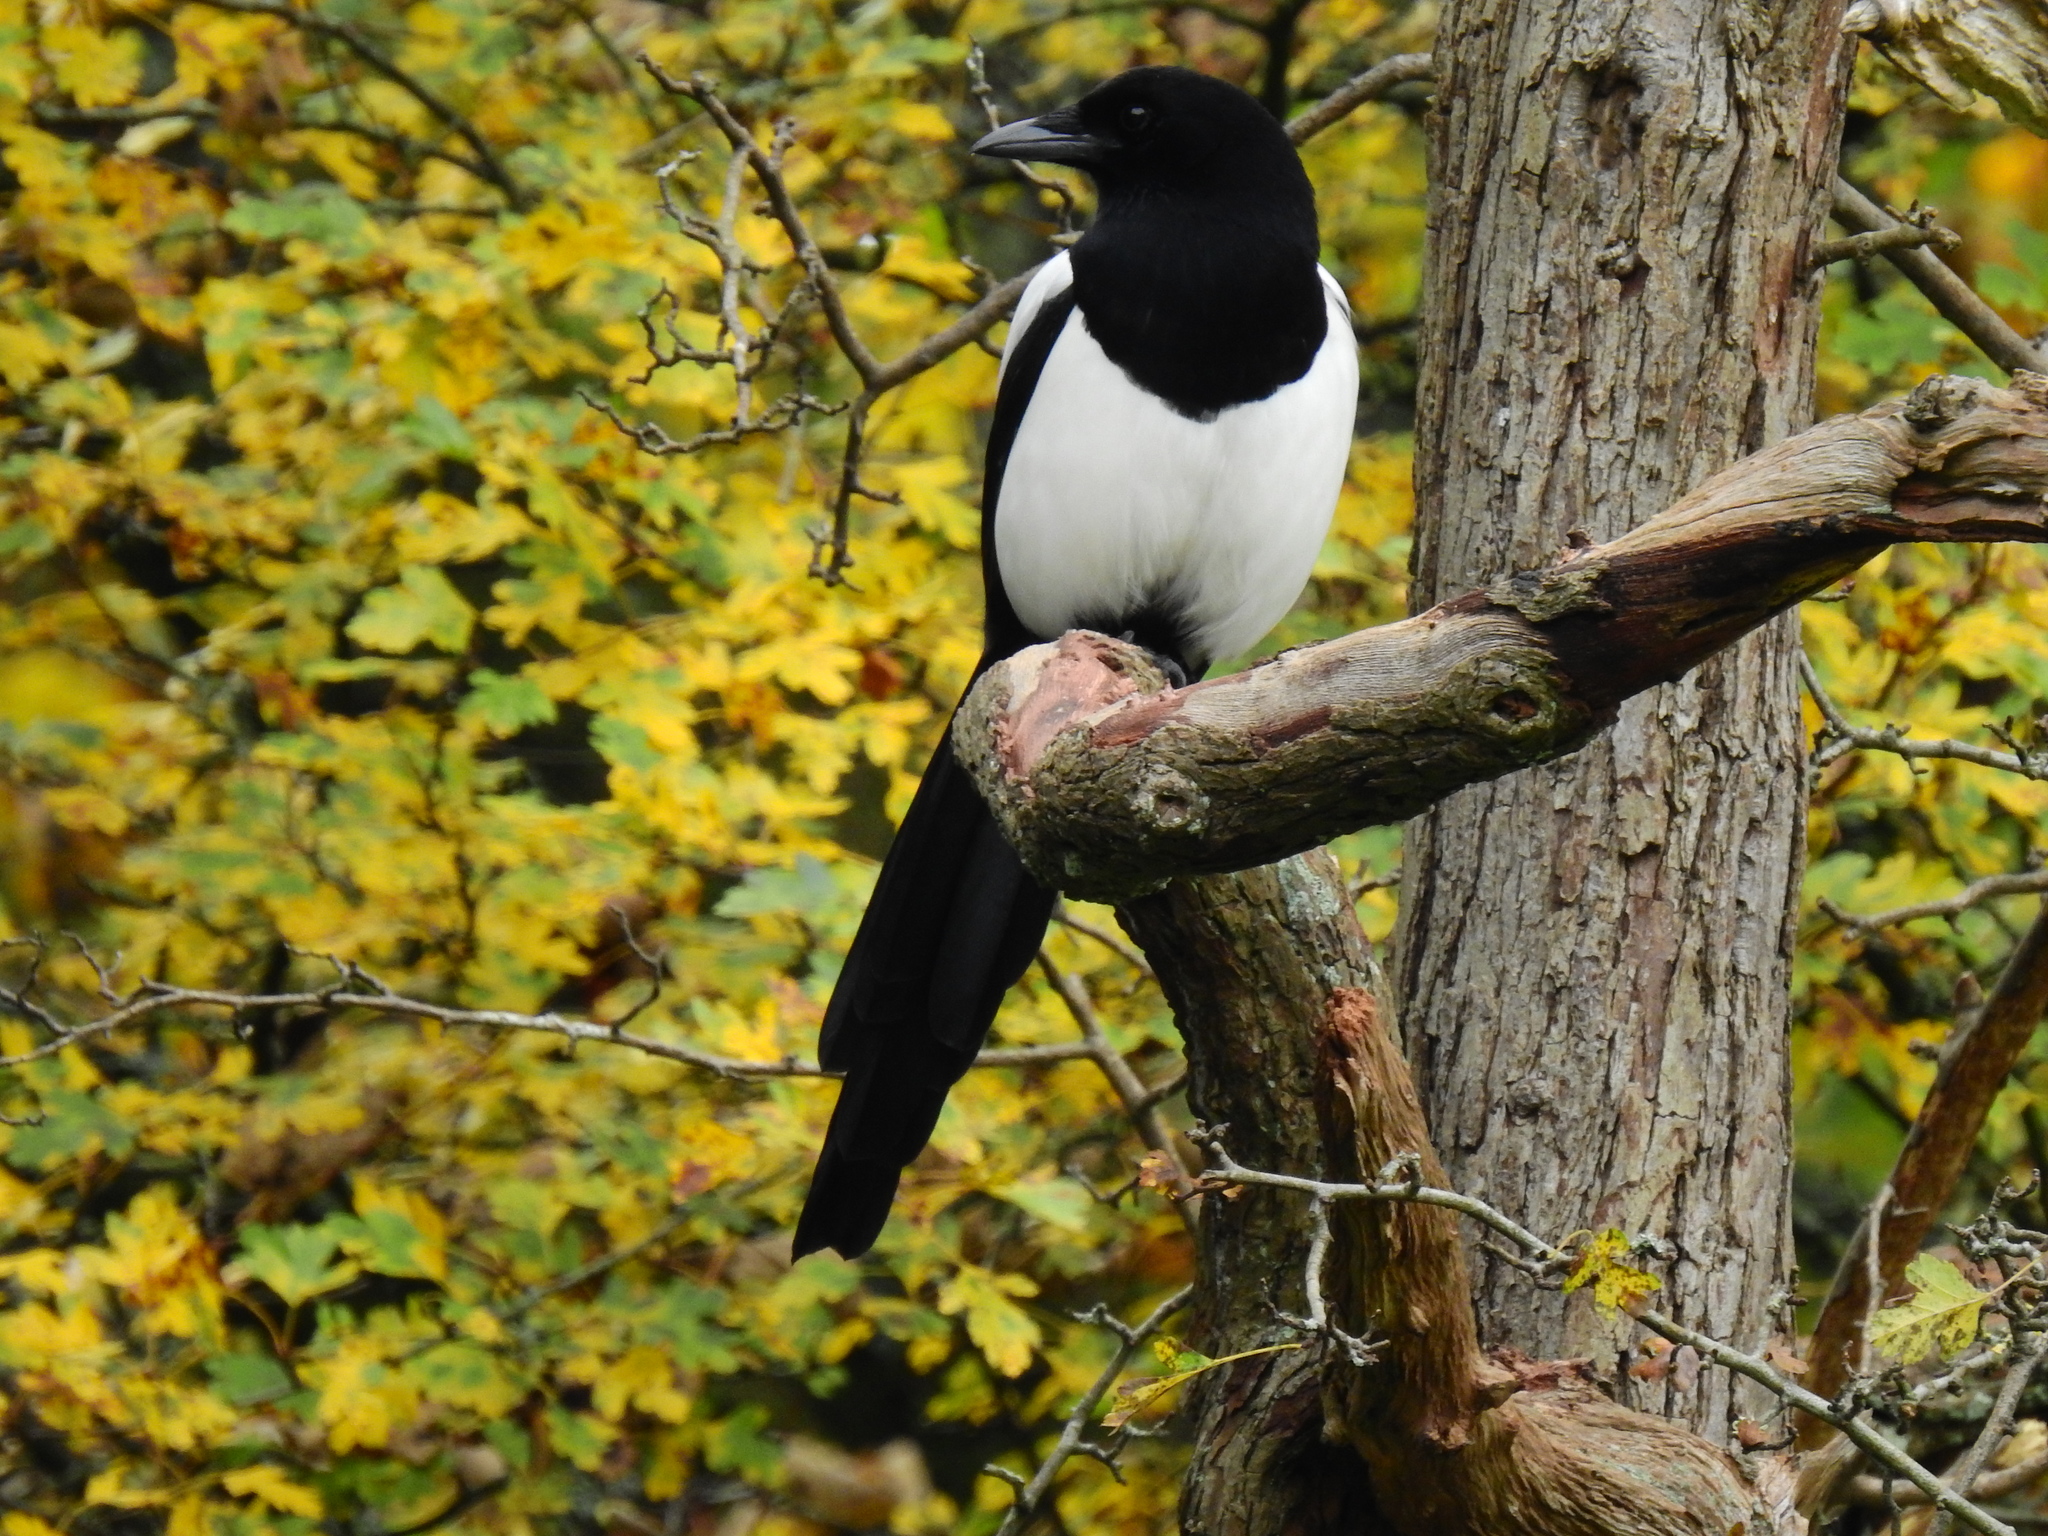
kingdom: Animalia
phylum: Chordata
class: Aves
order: Passeriformes
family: Corvidae
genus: Pica
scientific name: Pica pica
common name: Eurasian magpie
